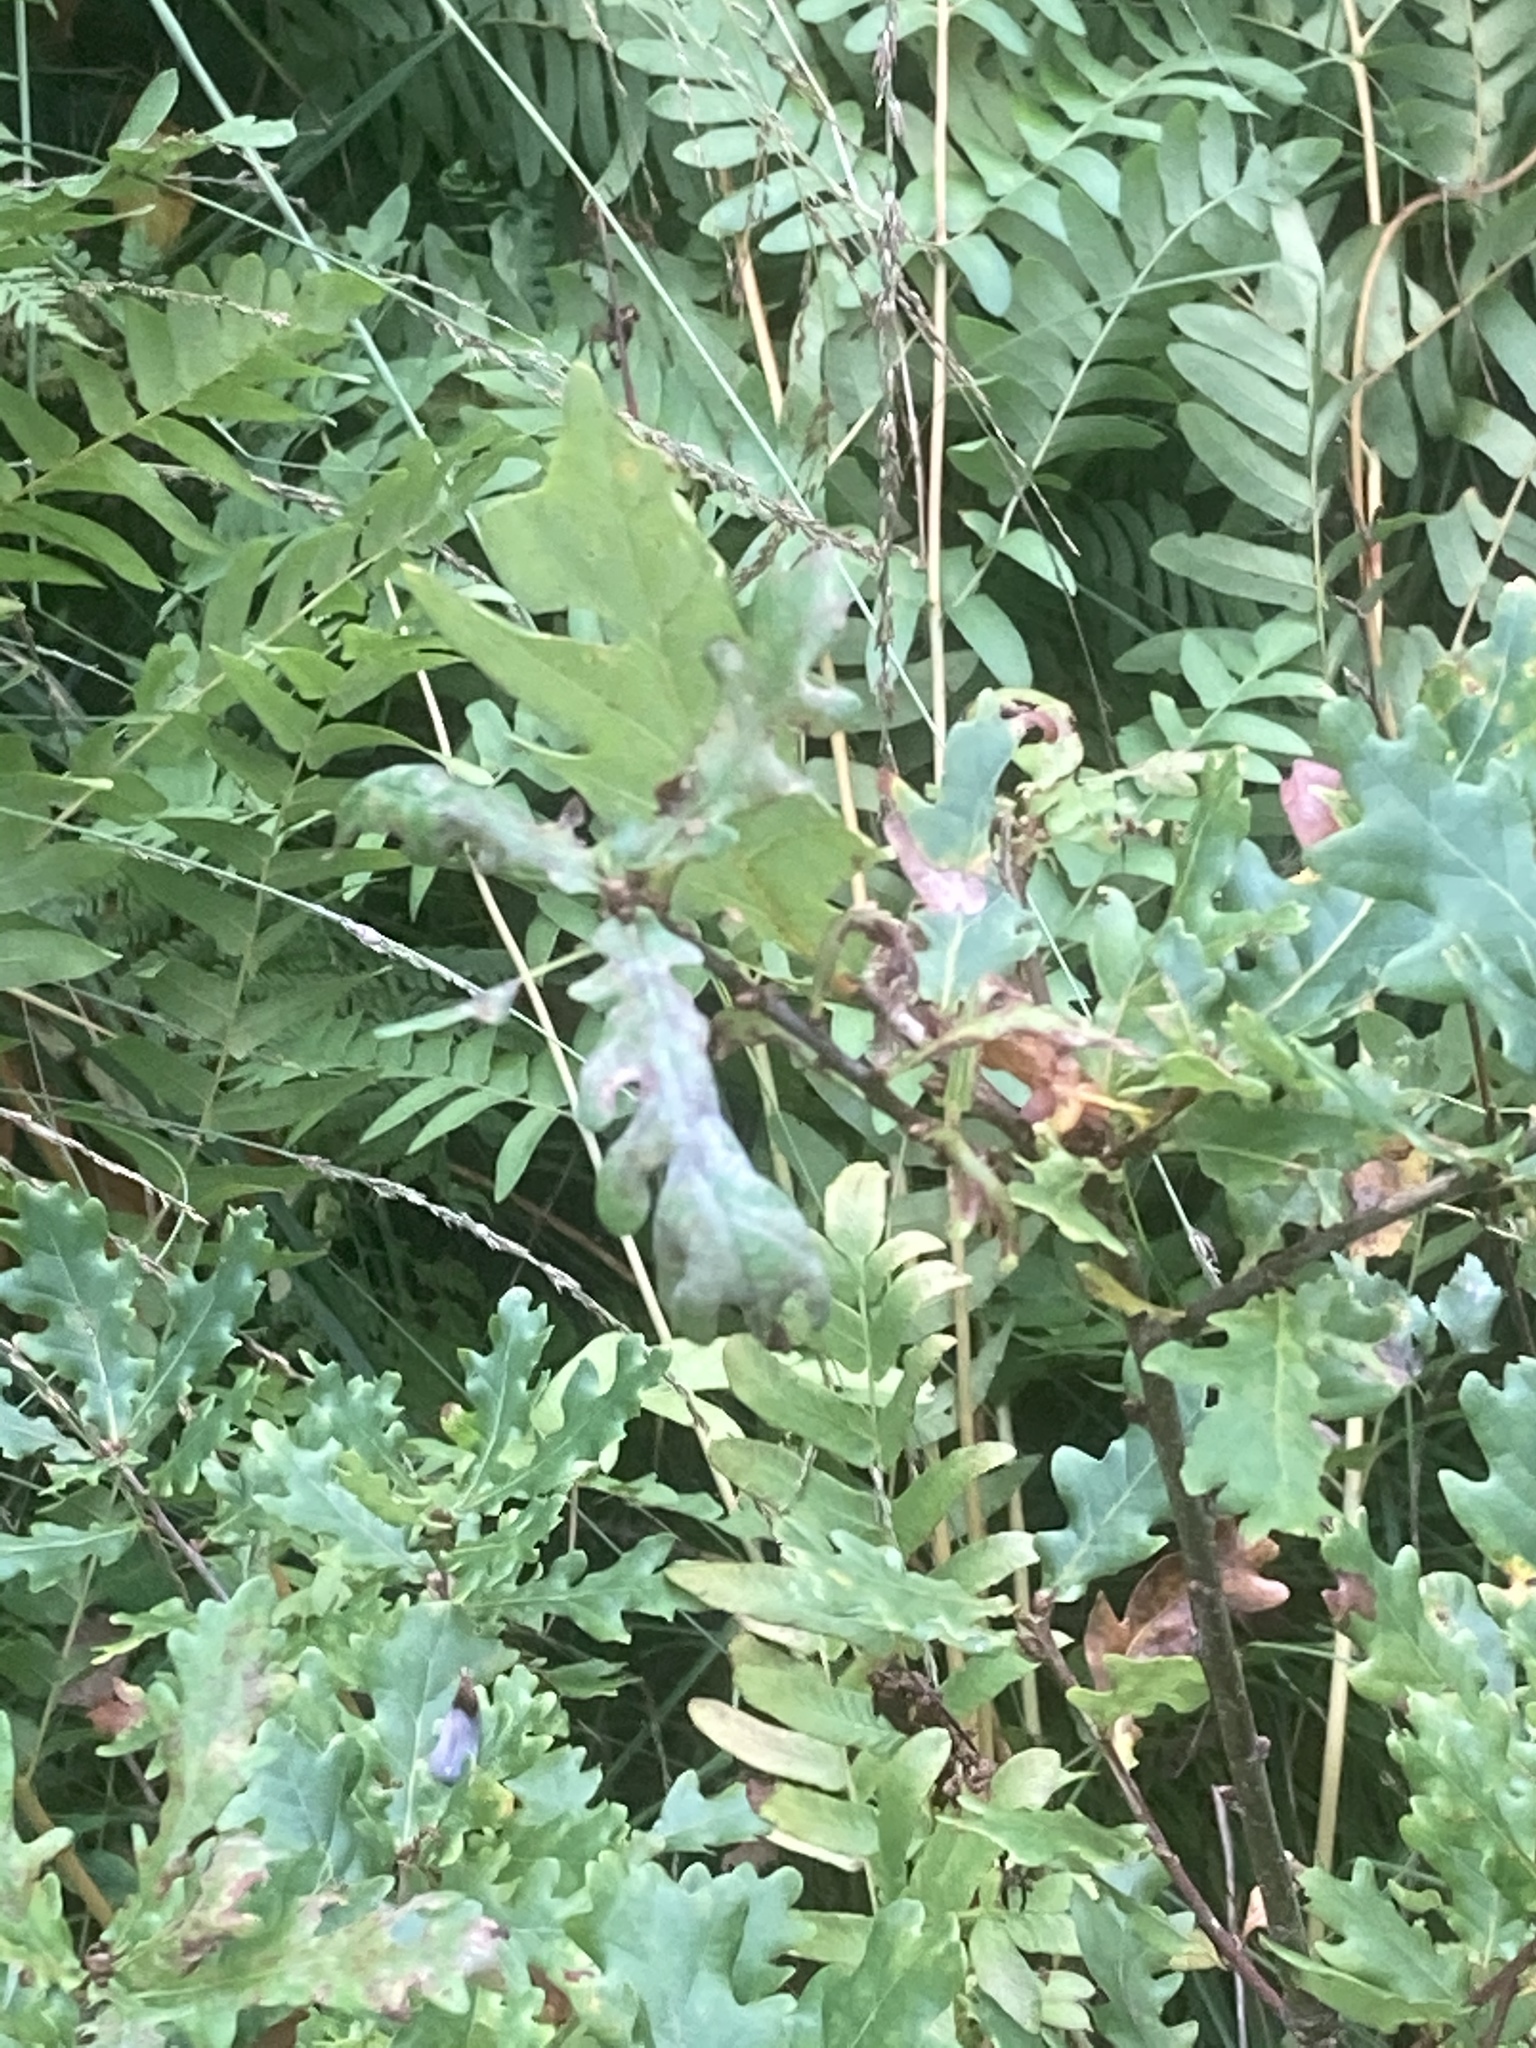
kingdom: Plantae
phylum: Tracheophyta
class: Polypodiopsida
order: Osmundales
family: Osmundaceae
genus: Osmunda
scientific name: Osmunda regalis
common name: Royal fern
